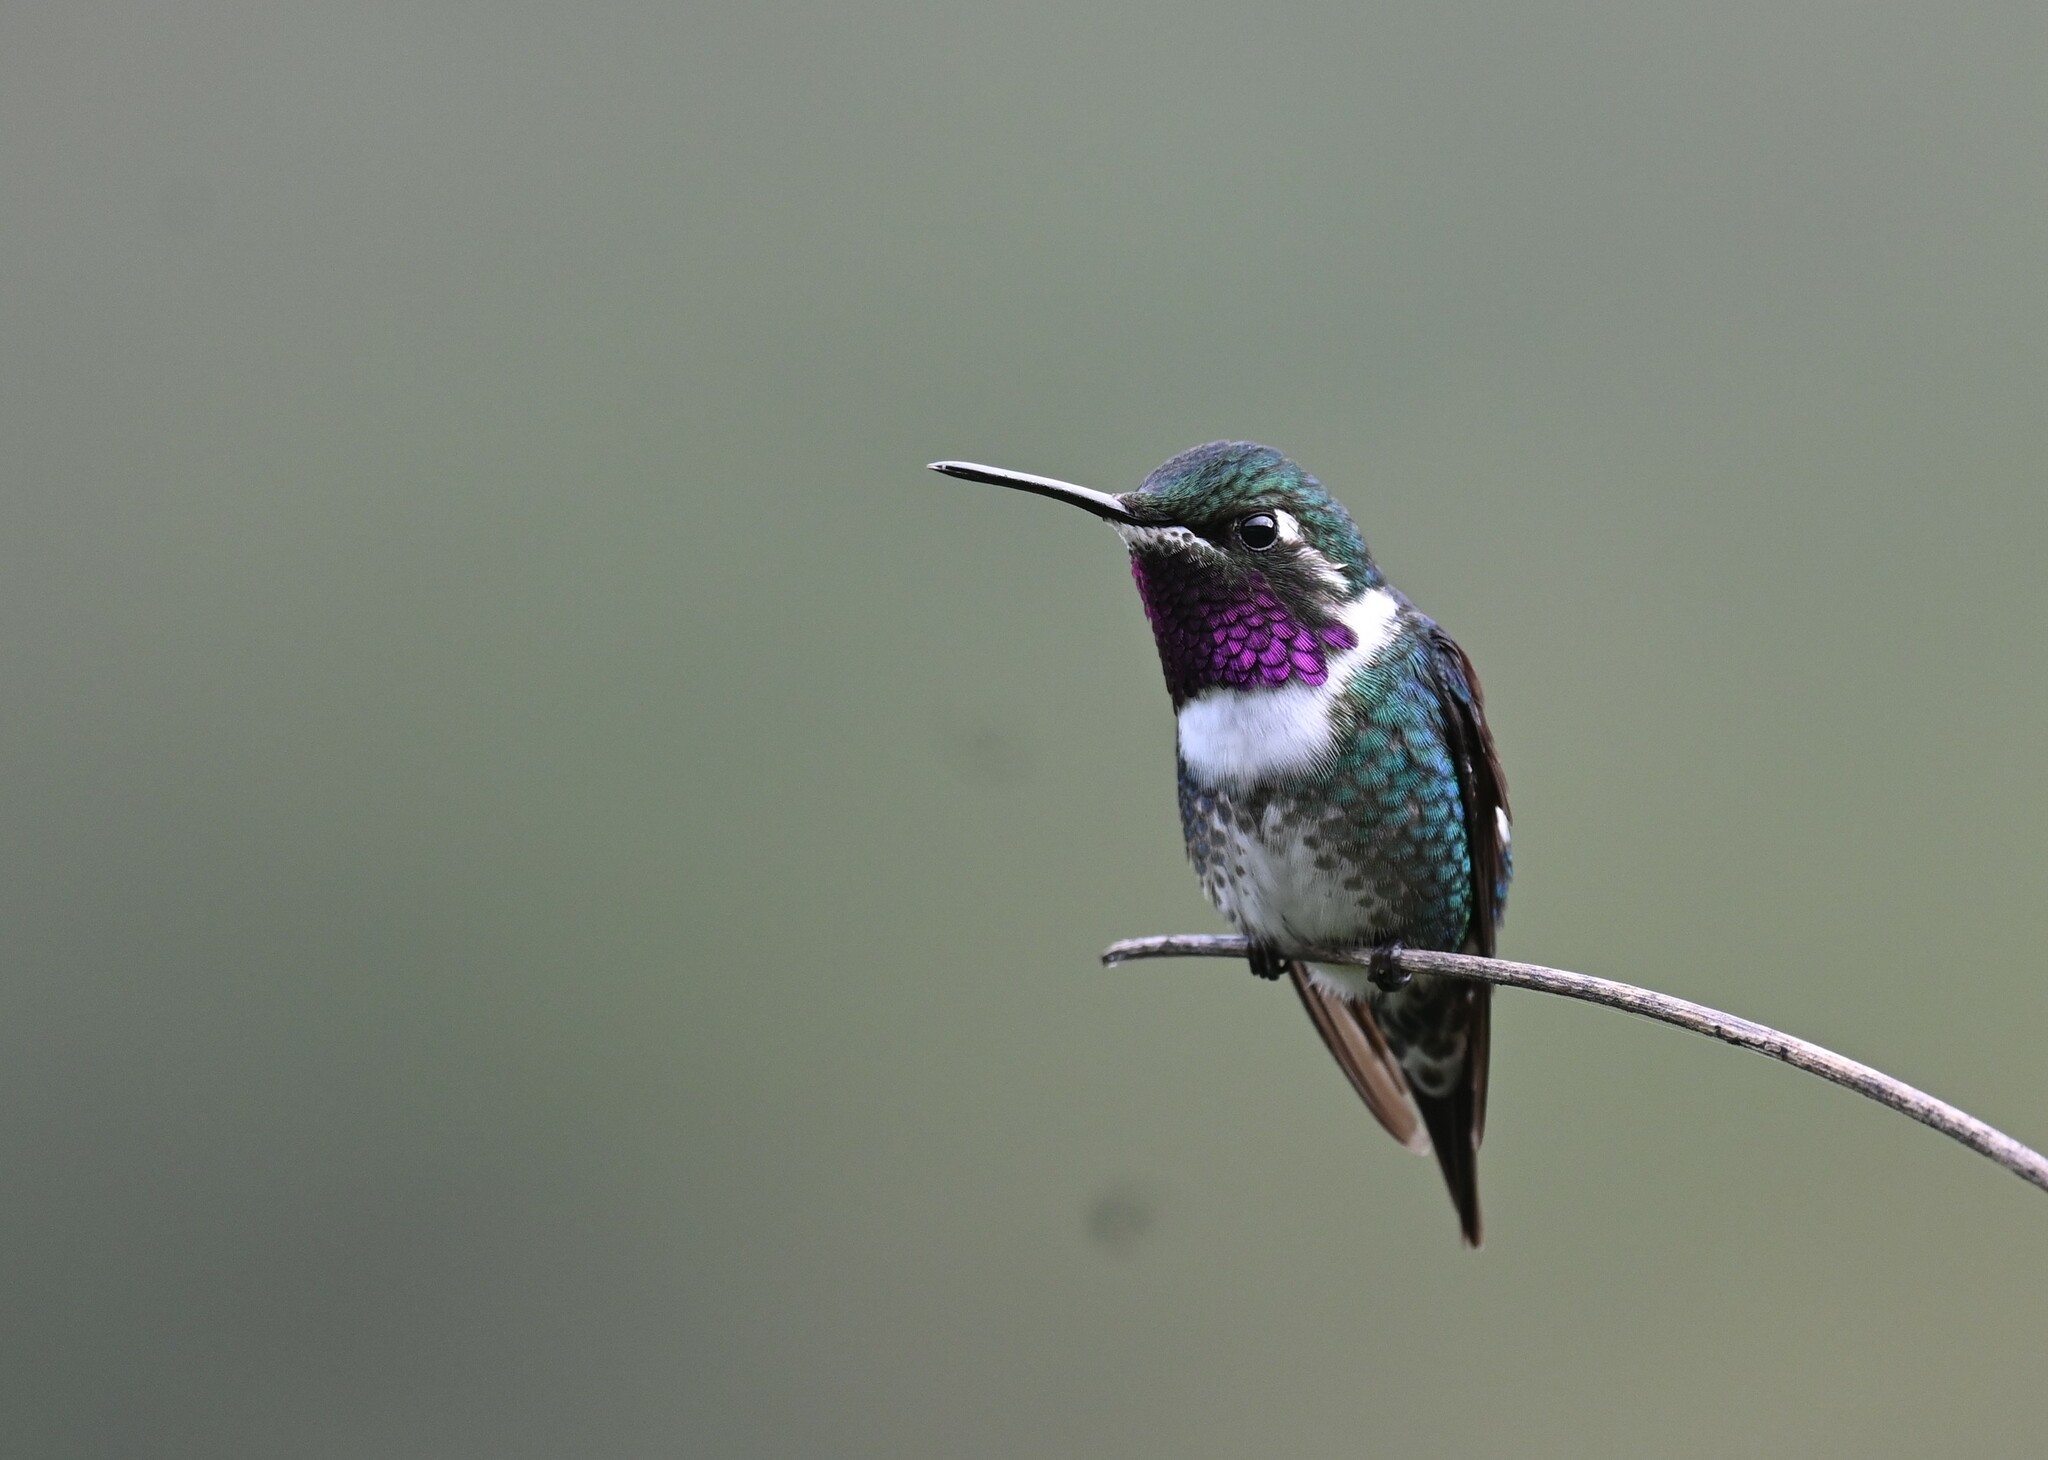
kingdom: Animalia
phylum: Chordata
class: Aves
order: Apodiformes
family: Trochilidae
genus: Chaetocercus
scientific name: Chaetocercus mulsant
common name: White-bellied woodstar
